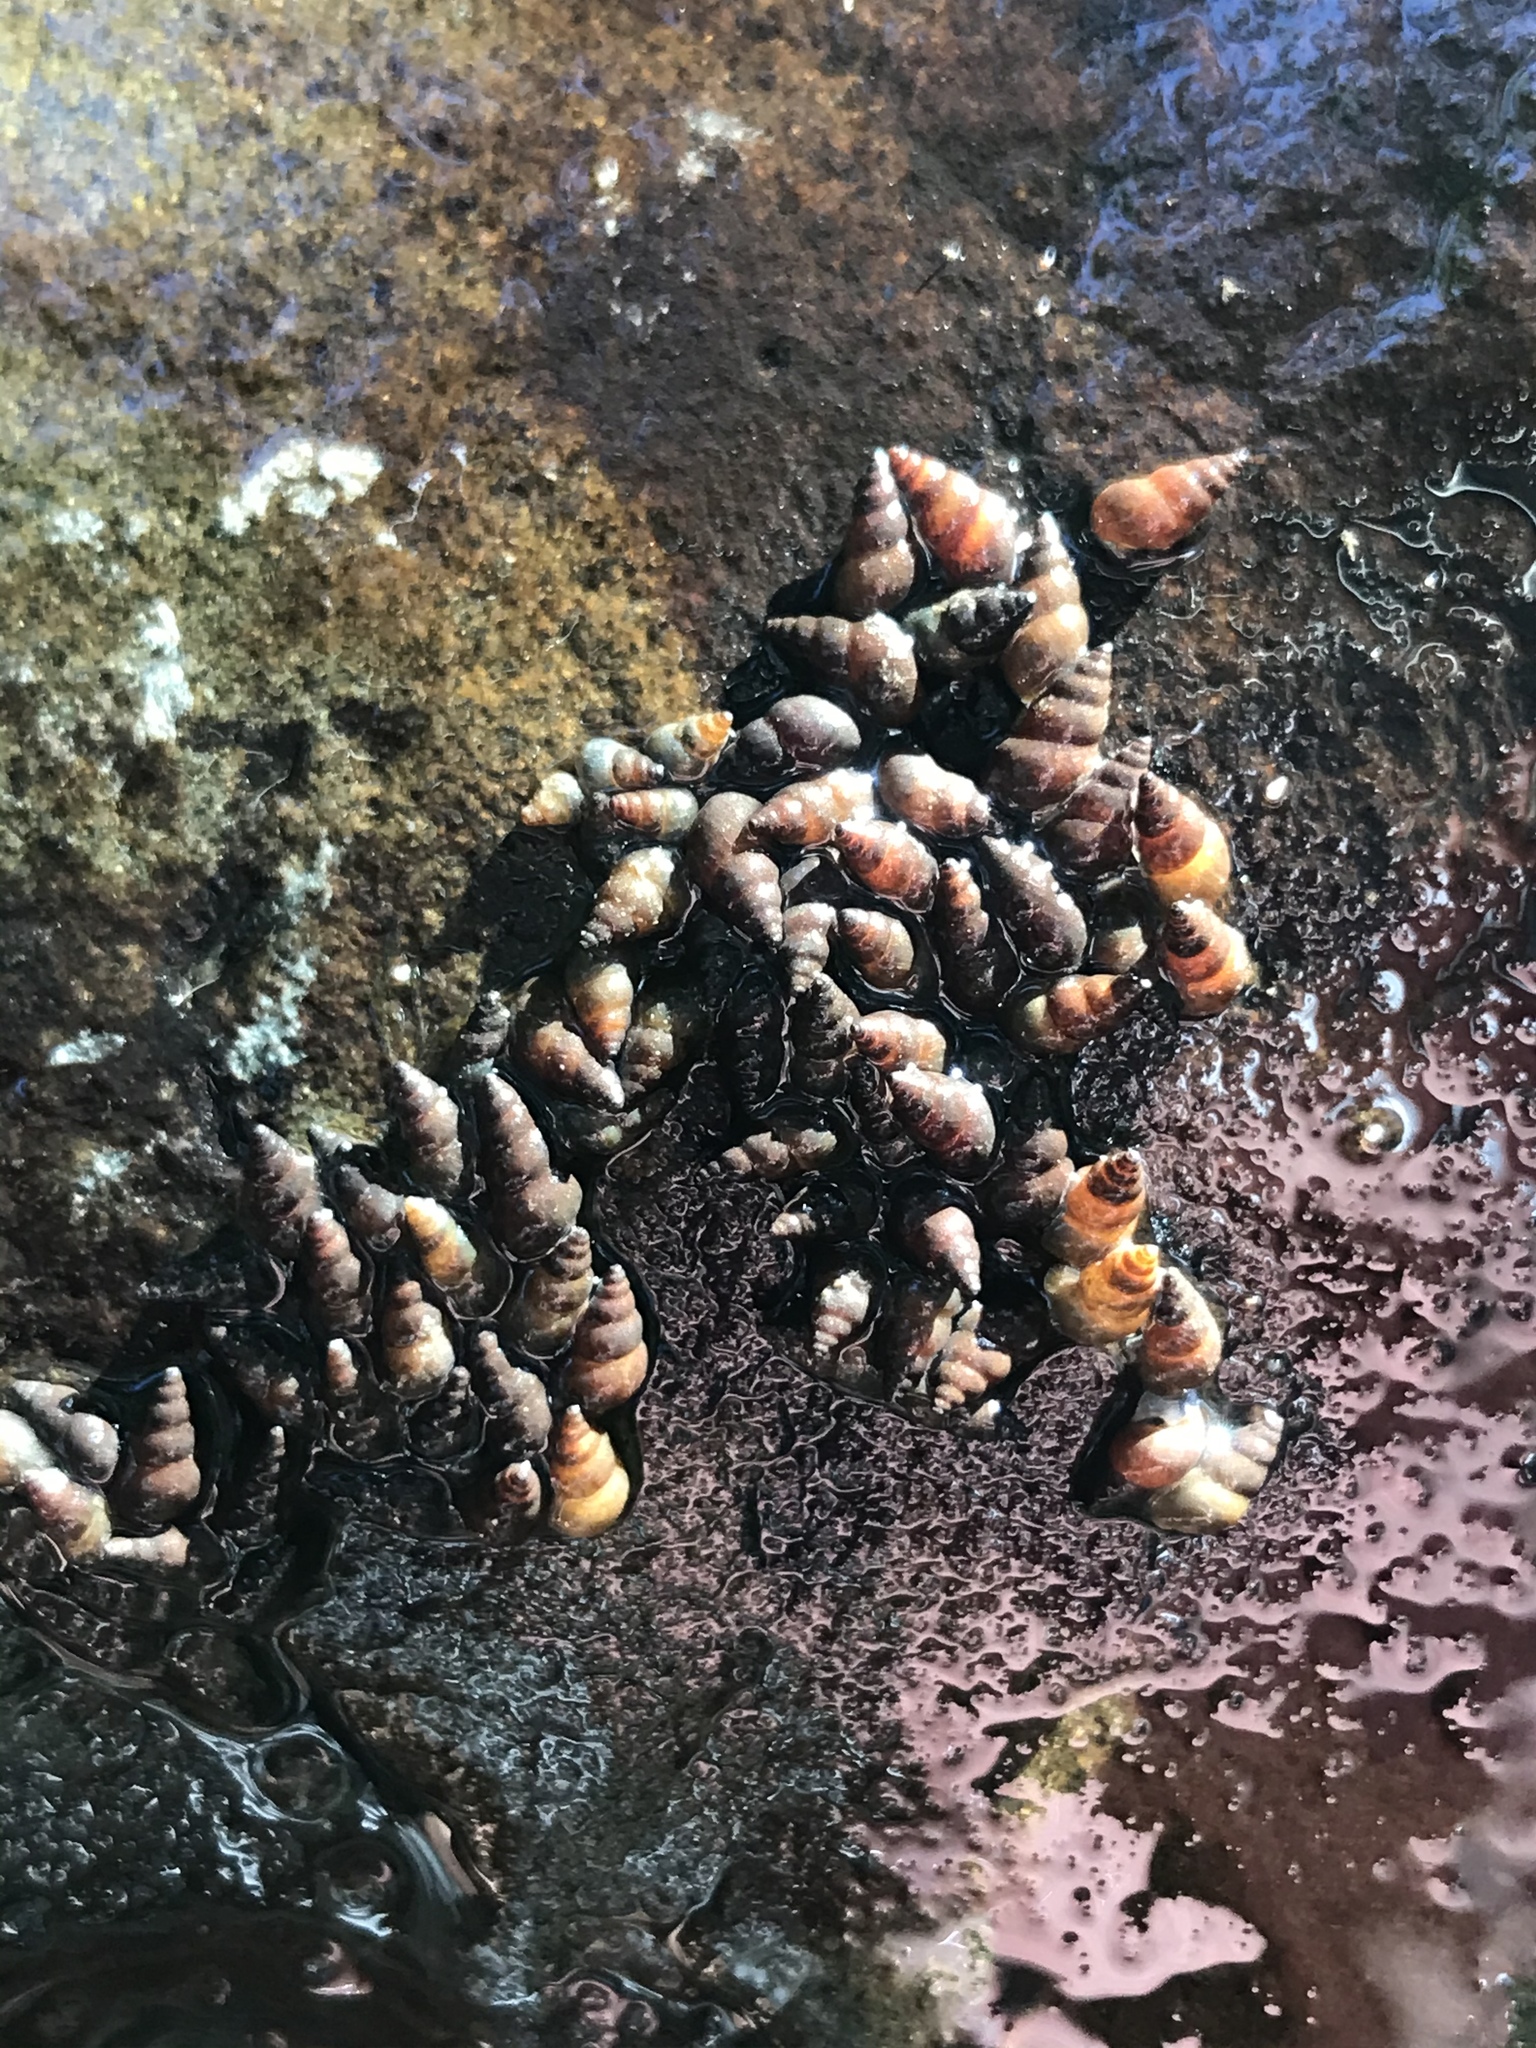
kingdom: Animalia
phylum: Mollusca
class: Gastropoda
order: Littorinimorpha
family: Tateidae
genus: Potamopyrgus
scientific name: Potamopyrgus antipodarum
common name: Jenkins' spire snail
